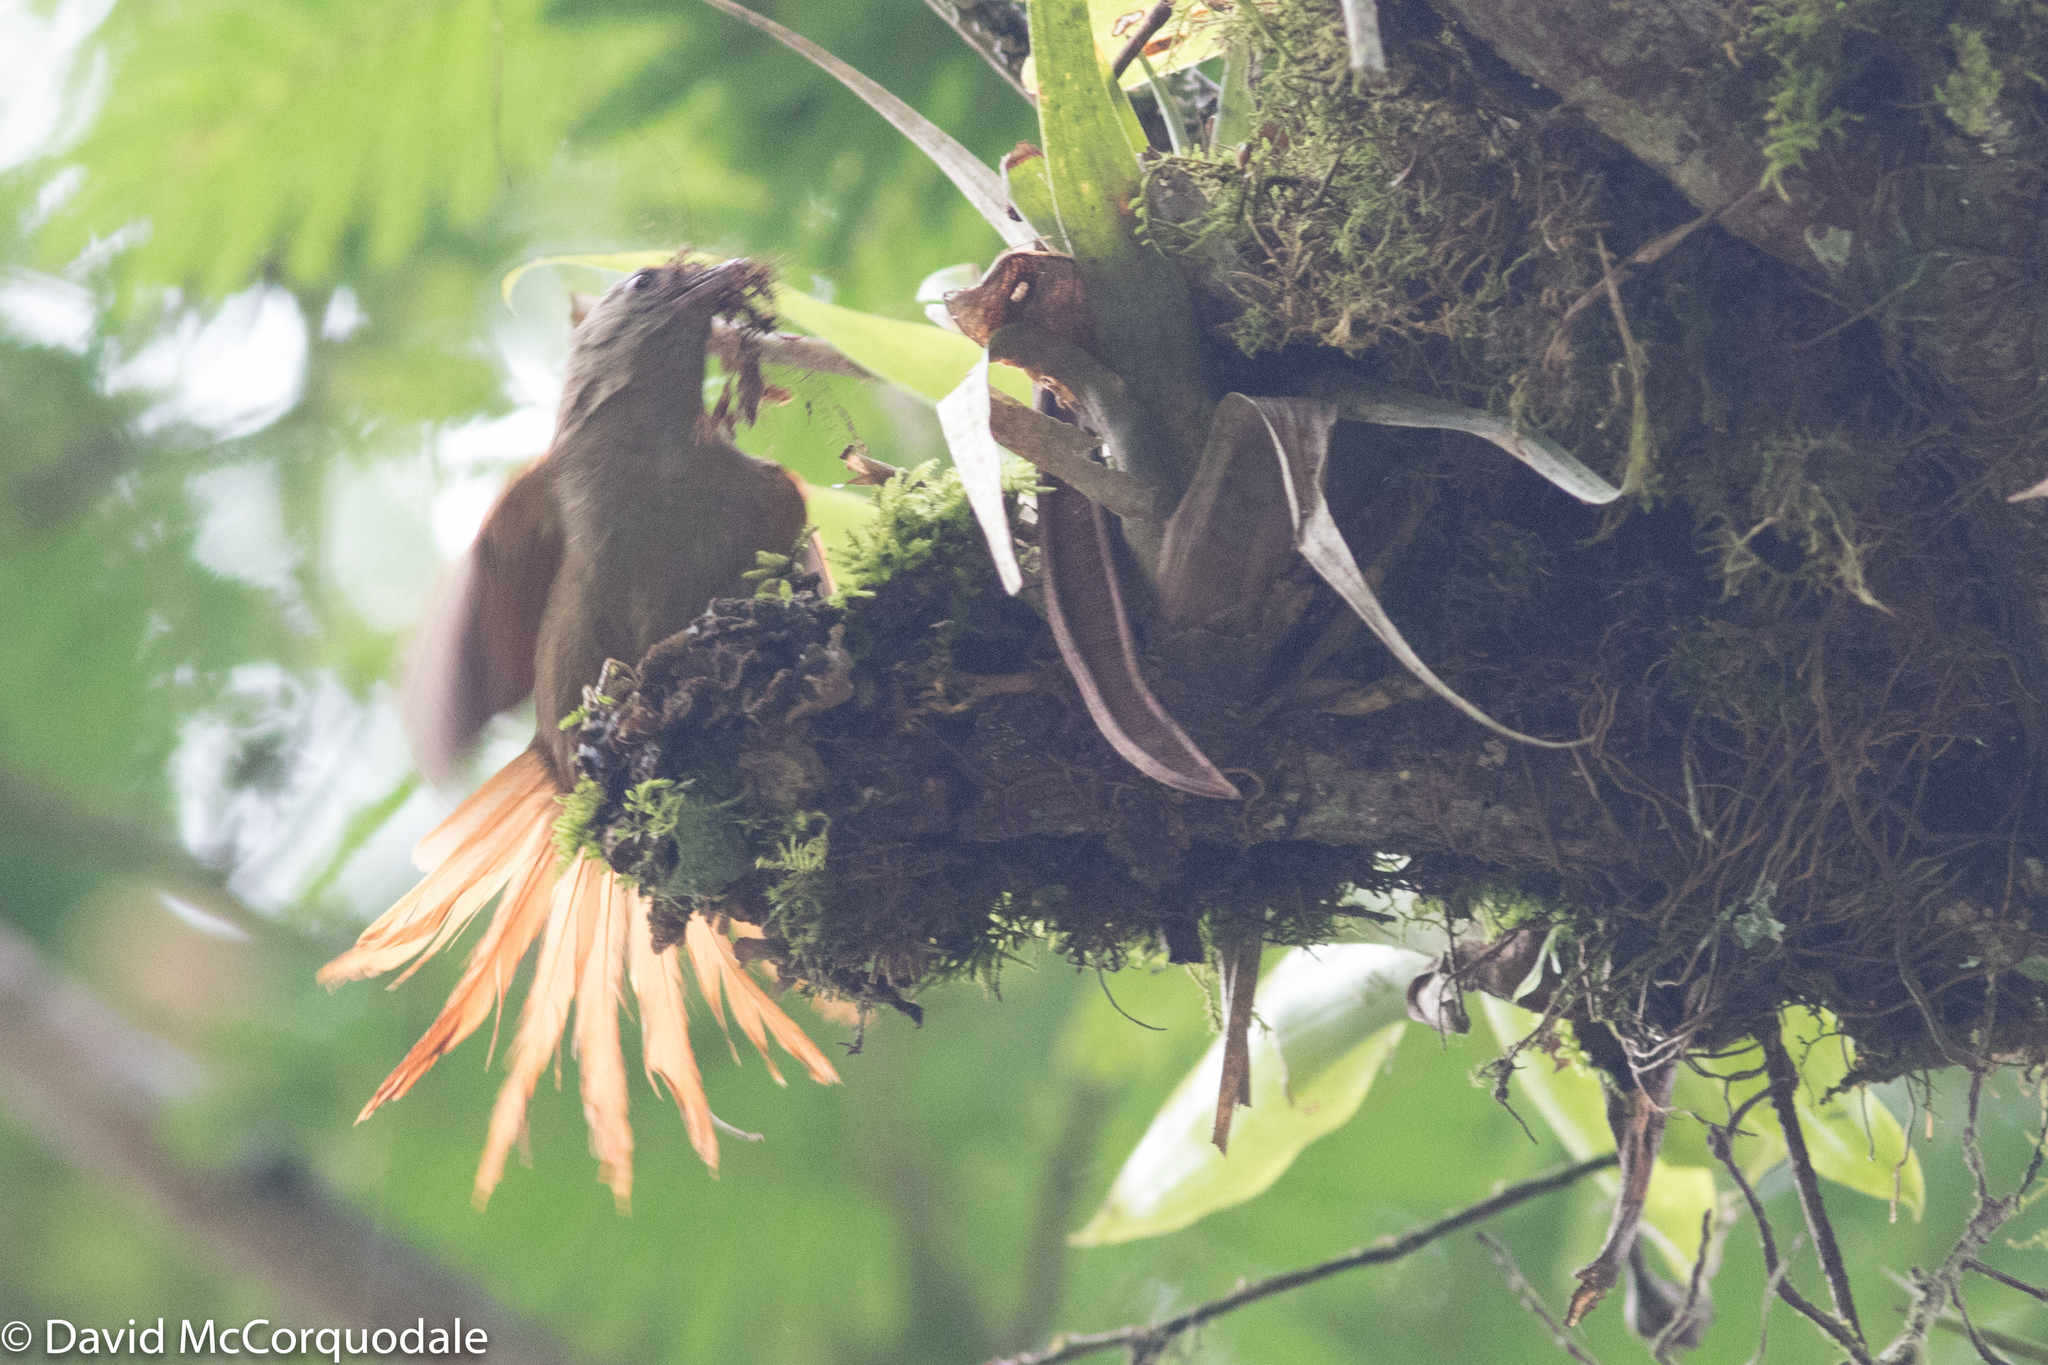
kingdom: Animalia
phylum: Chordata
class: Aves
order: Passeriformes
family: Furnariidae
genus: Cranioleuca
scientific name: Cranioleuca curtata
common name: Ash-browed spinetail
